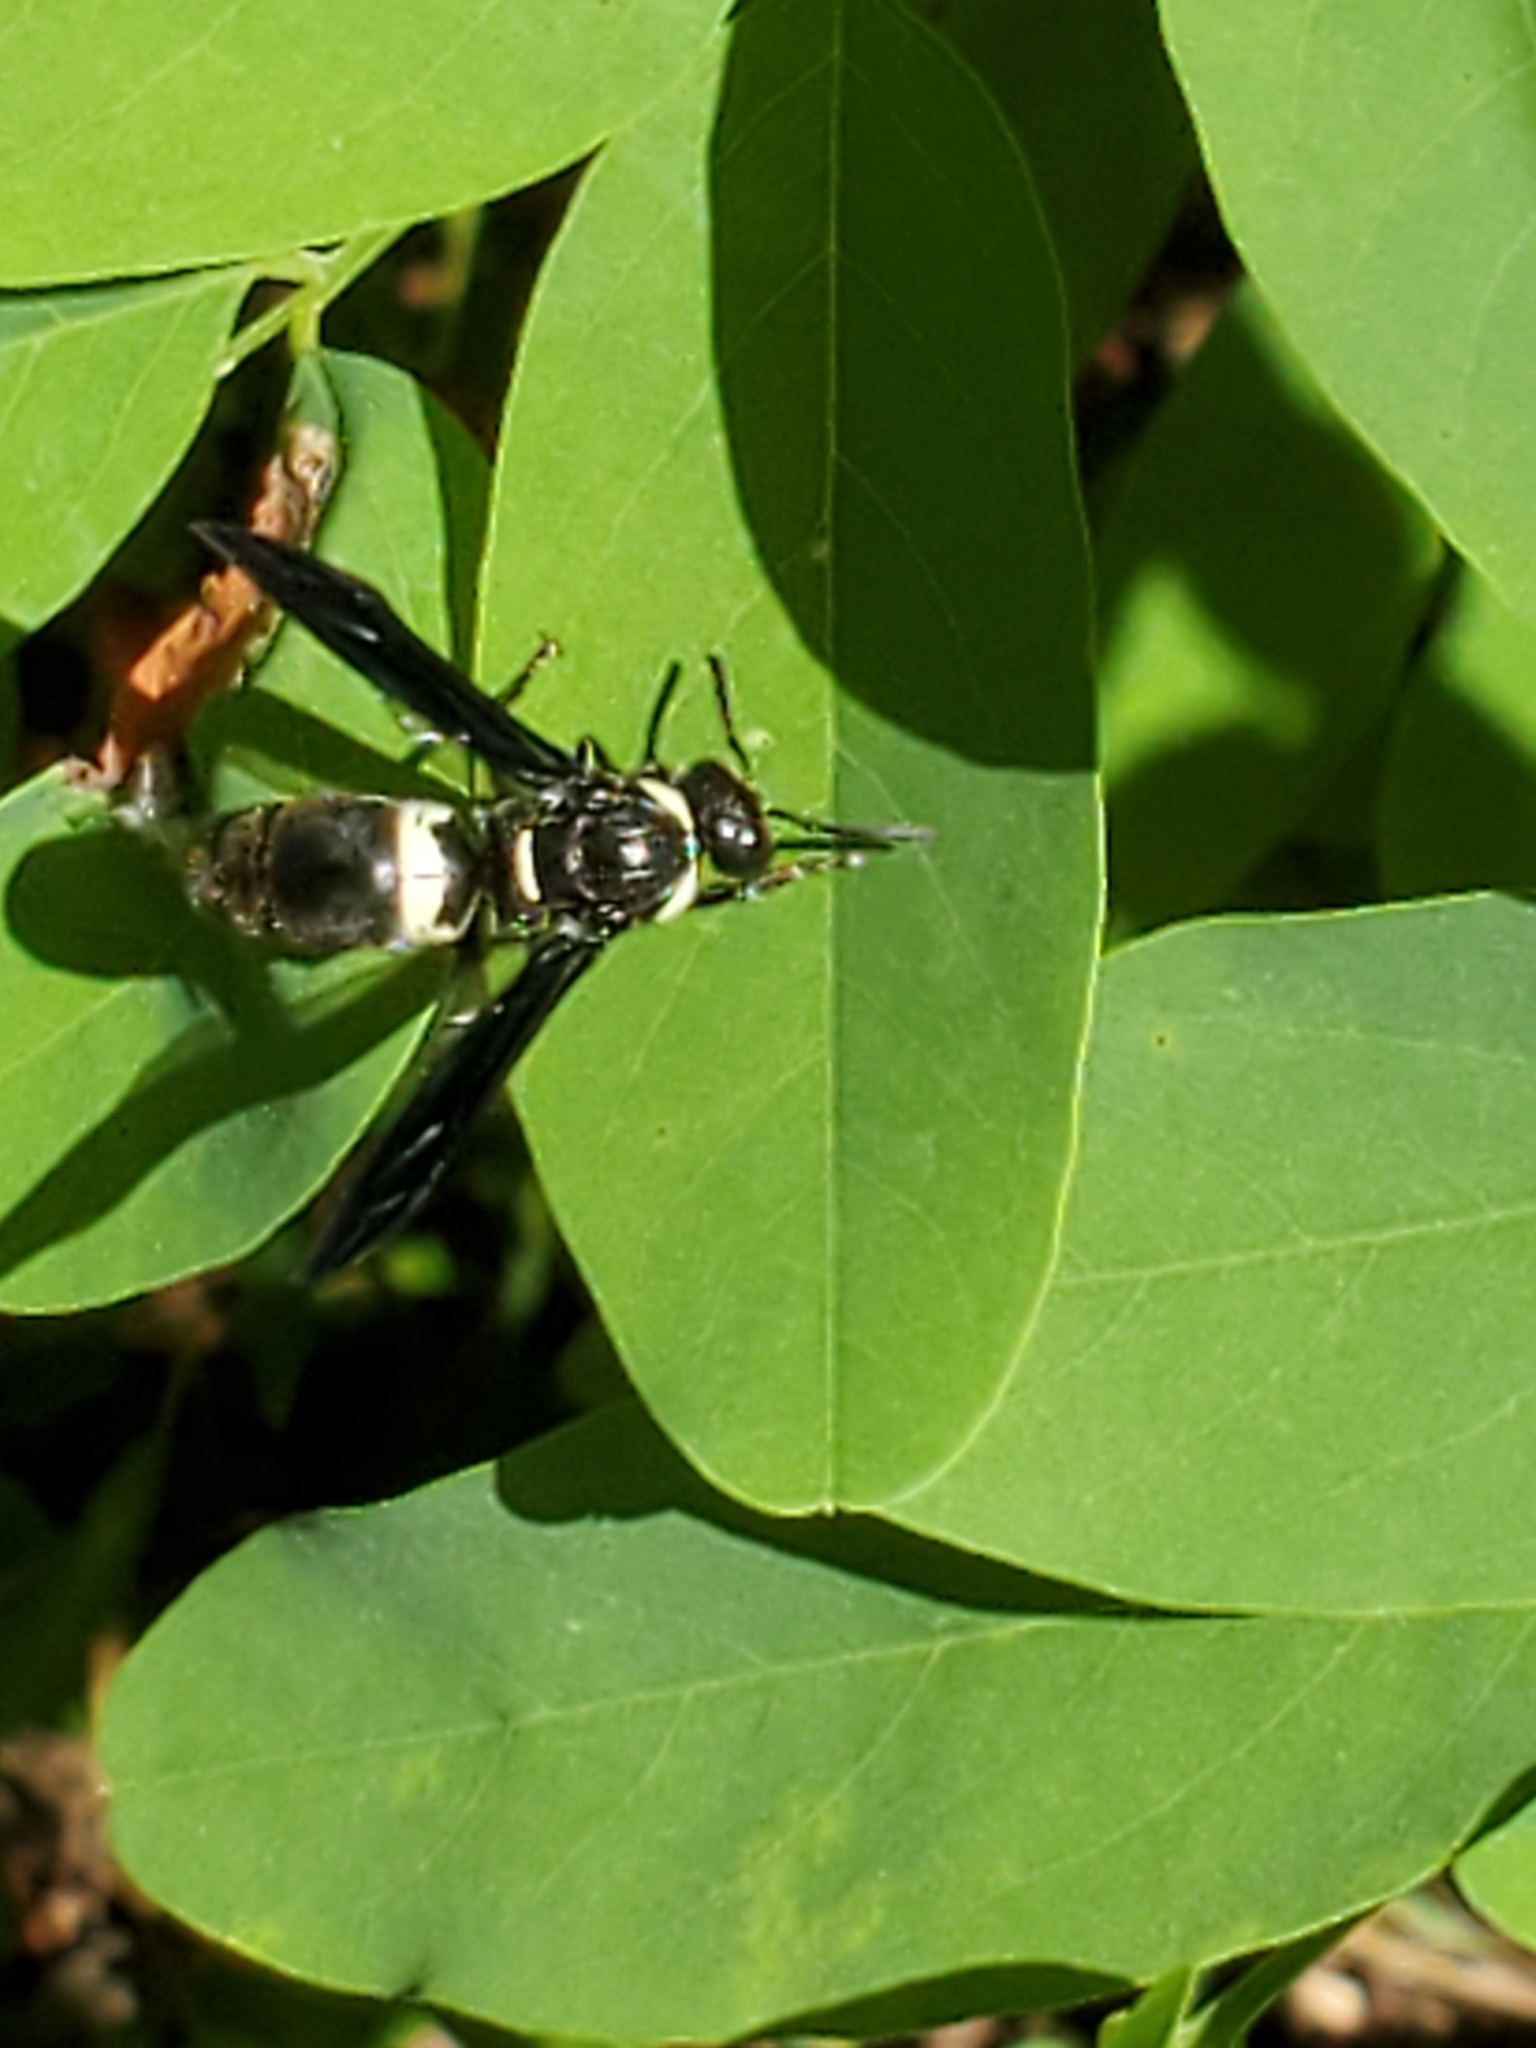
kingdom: Animalia
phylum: Arthropoda
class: Insecta
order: Hymenoptera
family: Eumenidae
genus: Monobia
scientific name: Monobia quadridens
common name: Four-toothed mason wasp
